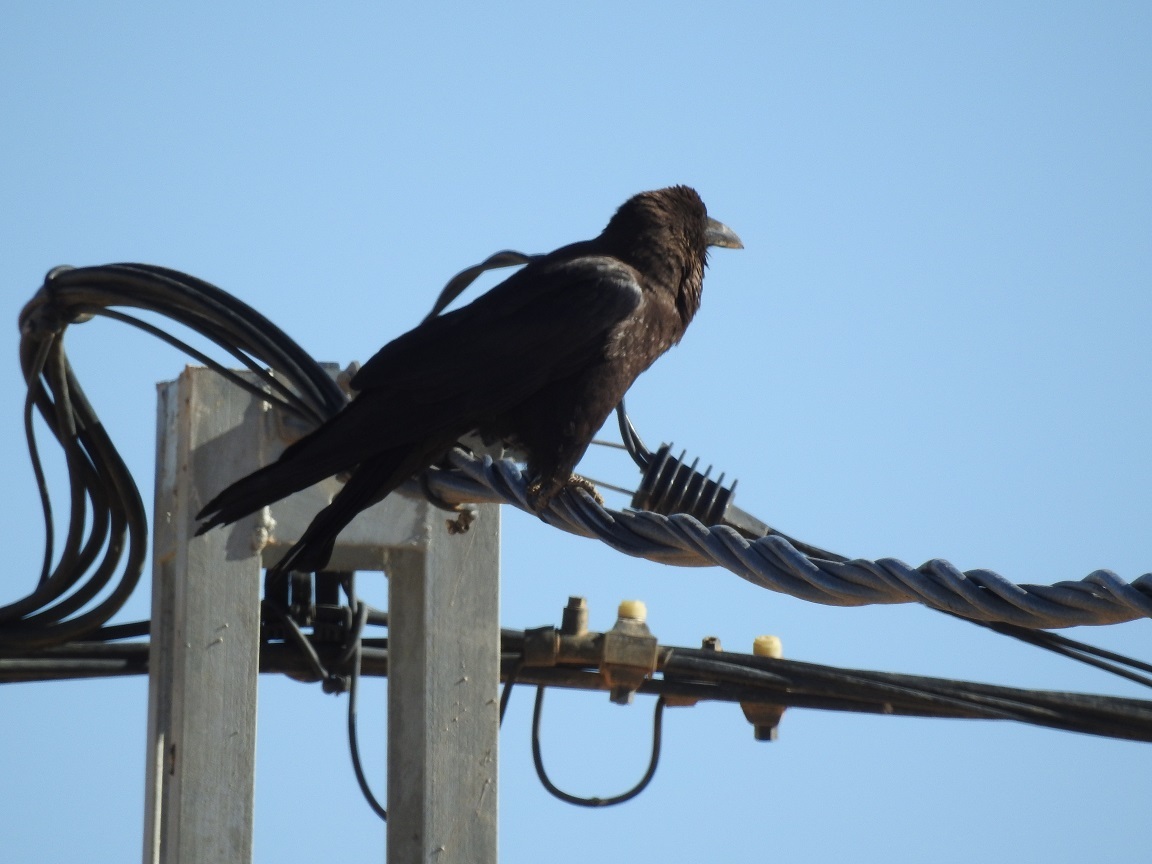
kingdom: Animalia
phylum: Chordata
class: Aves
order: Passeriformes
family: Corvidae
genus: Corvus
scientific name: Corvus ruficollis
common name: Brown-necked raven
